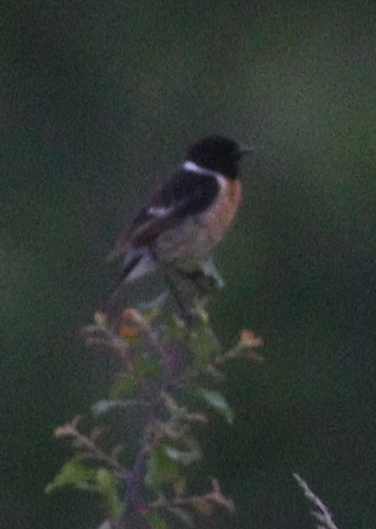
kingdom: Animalia
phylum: Chordata
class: Aves
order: Passeriformes
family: Muscicapidae
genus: Saxicola
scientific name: Saxicola rubicola
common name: European stonechat
